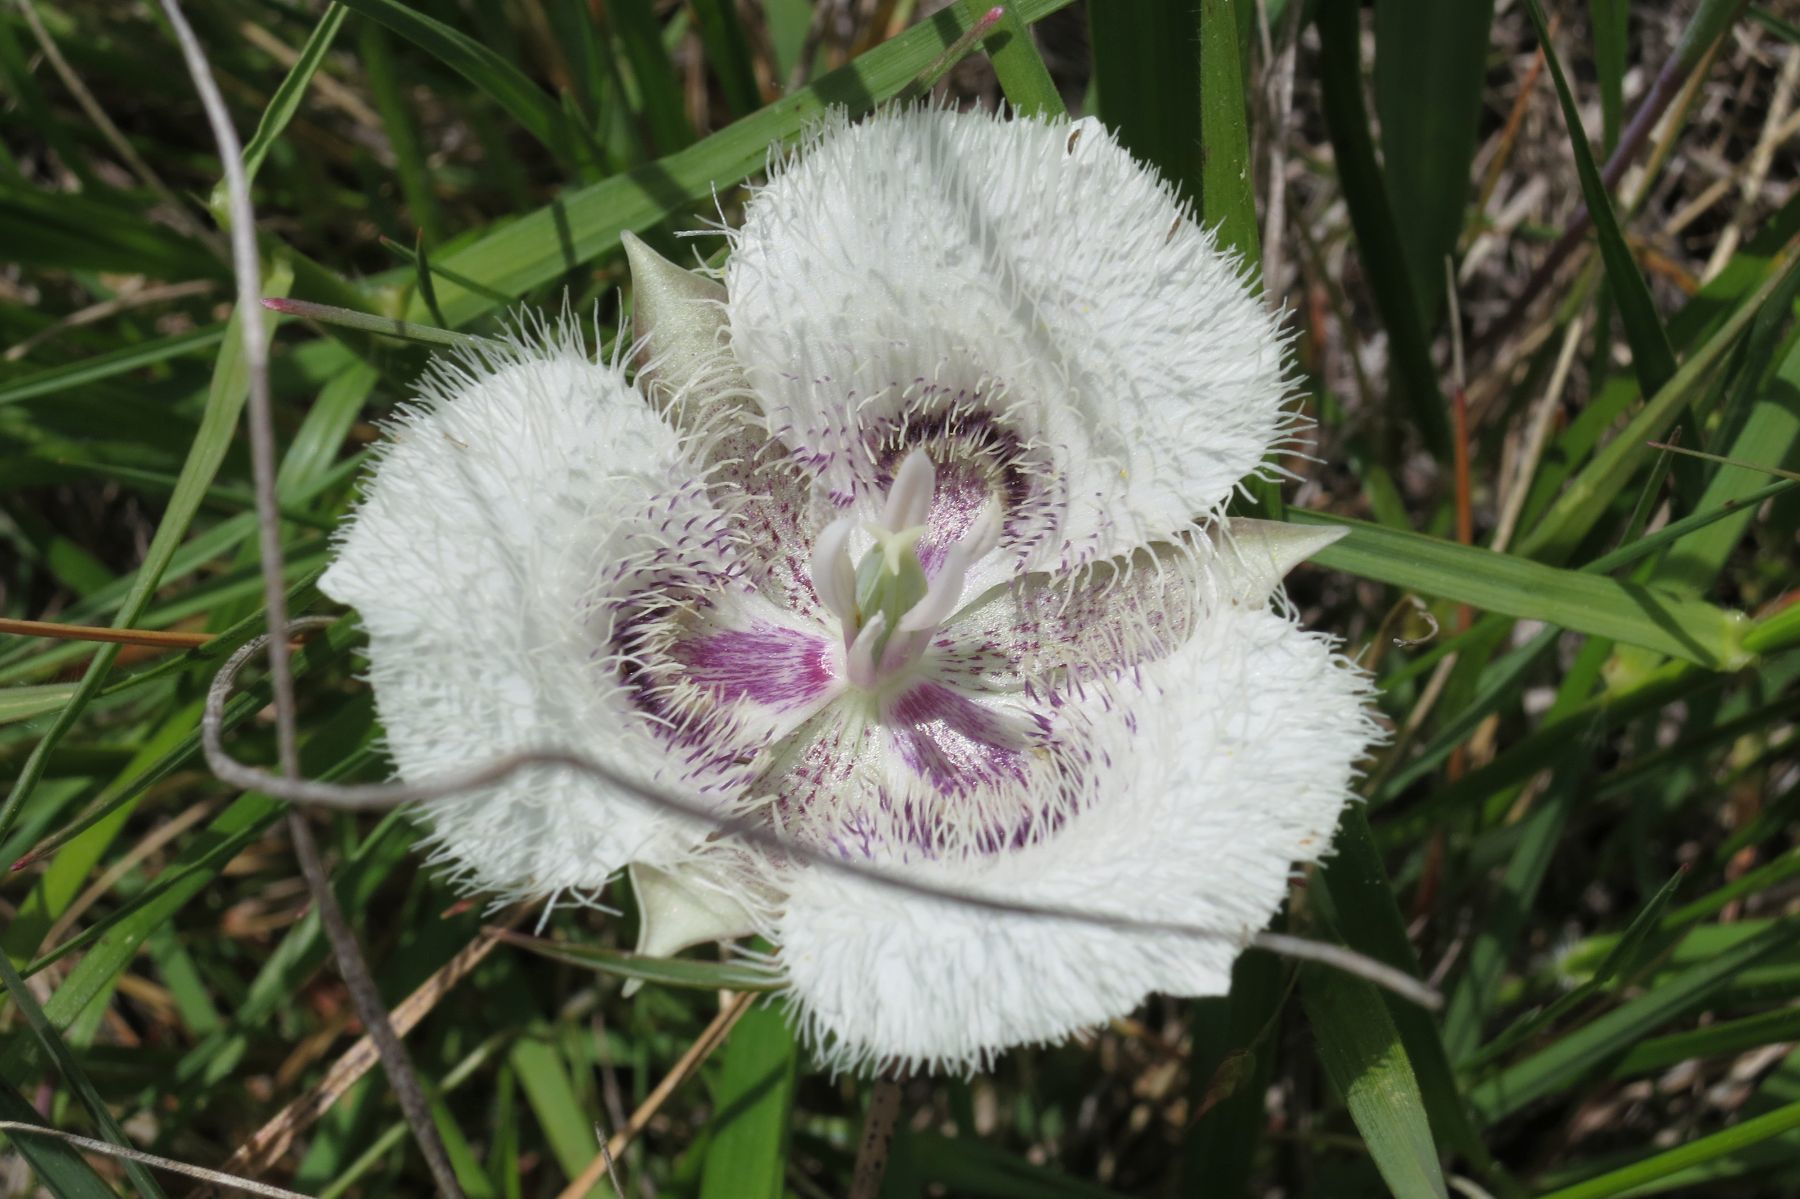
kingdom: Plantae
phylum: Tracheophyta
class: Liliopsida
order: Liliales
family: Liliaceae
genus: Calochortus
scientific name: Calochortus tolmiei
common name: Pussy-ears
